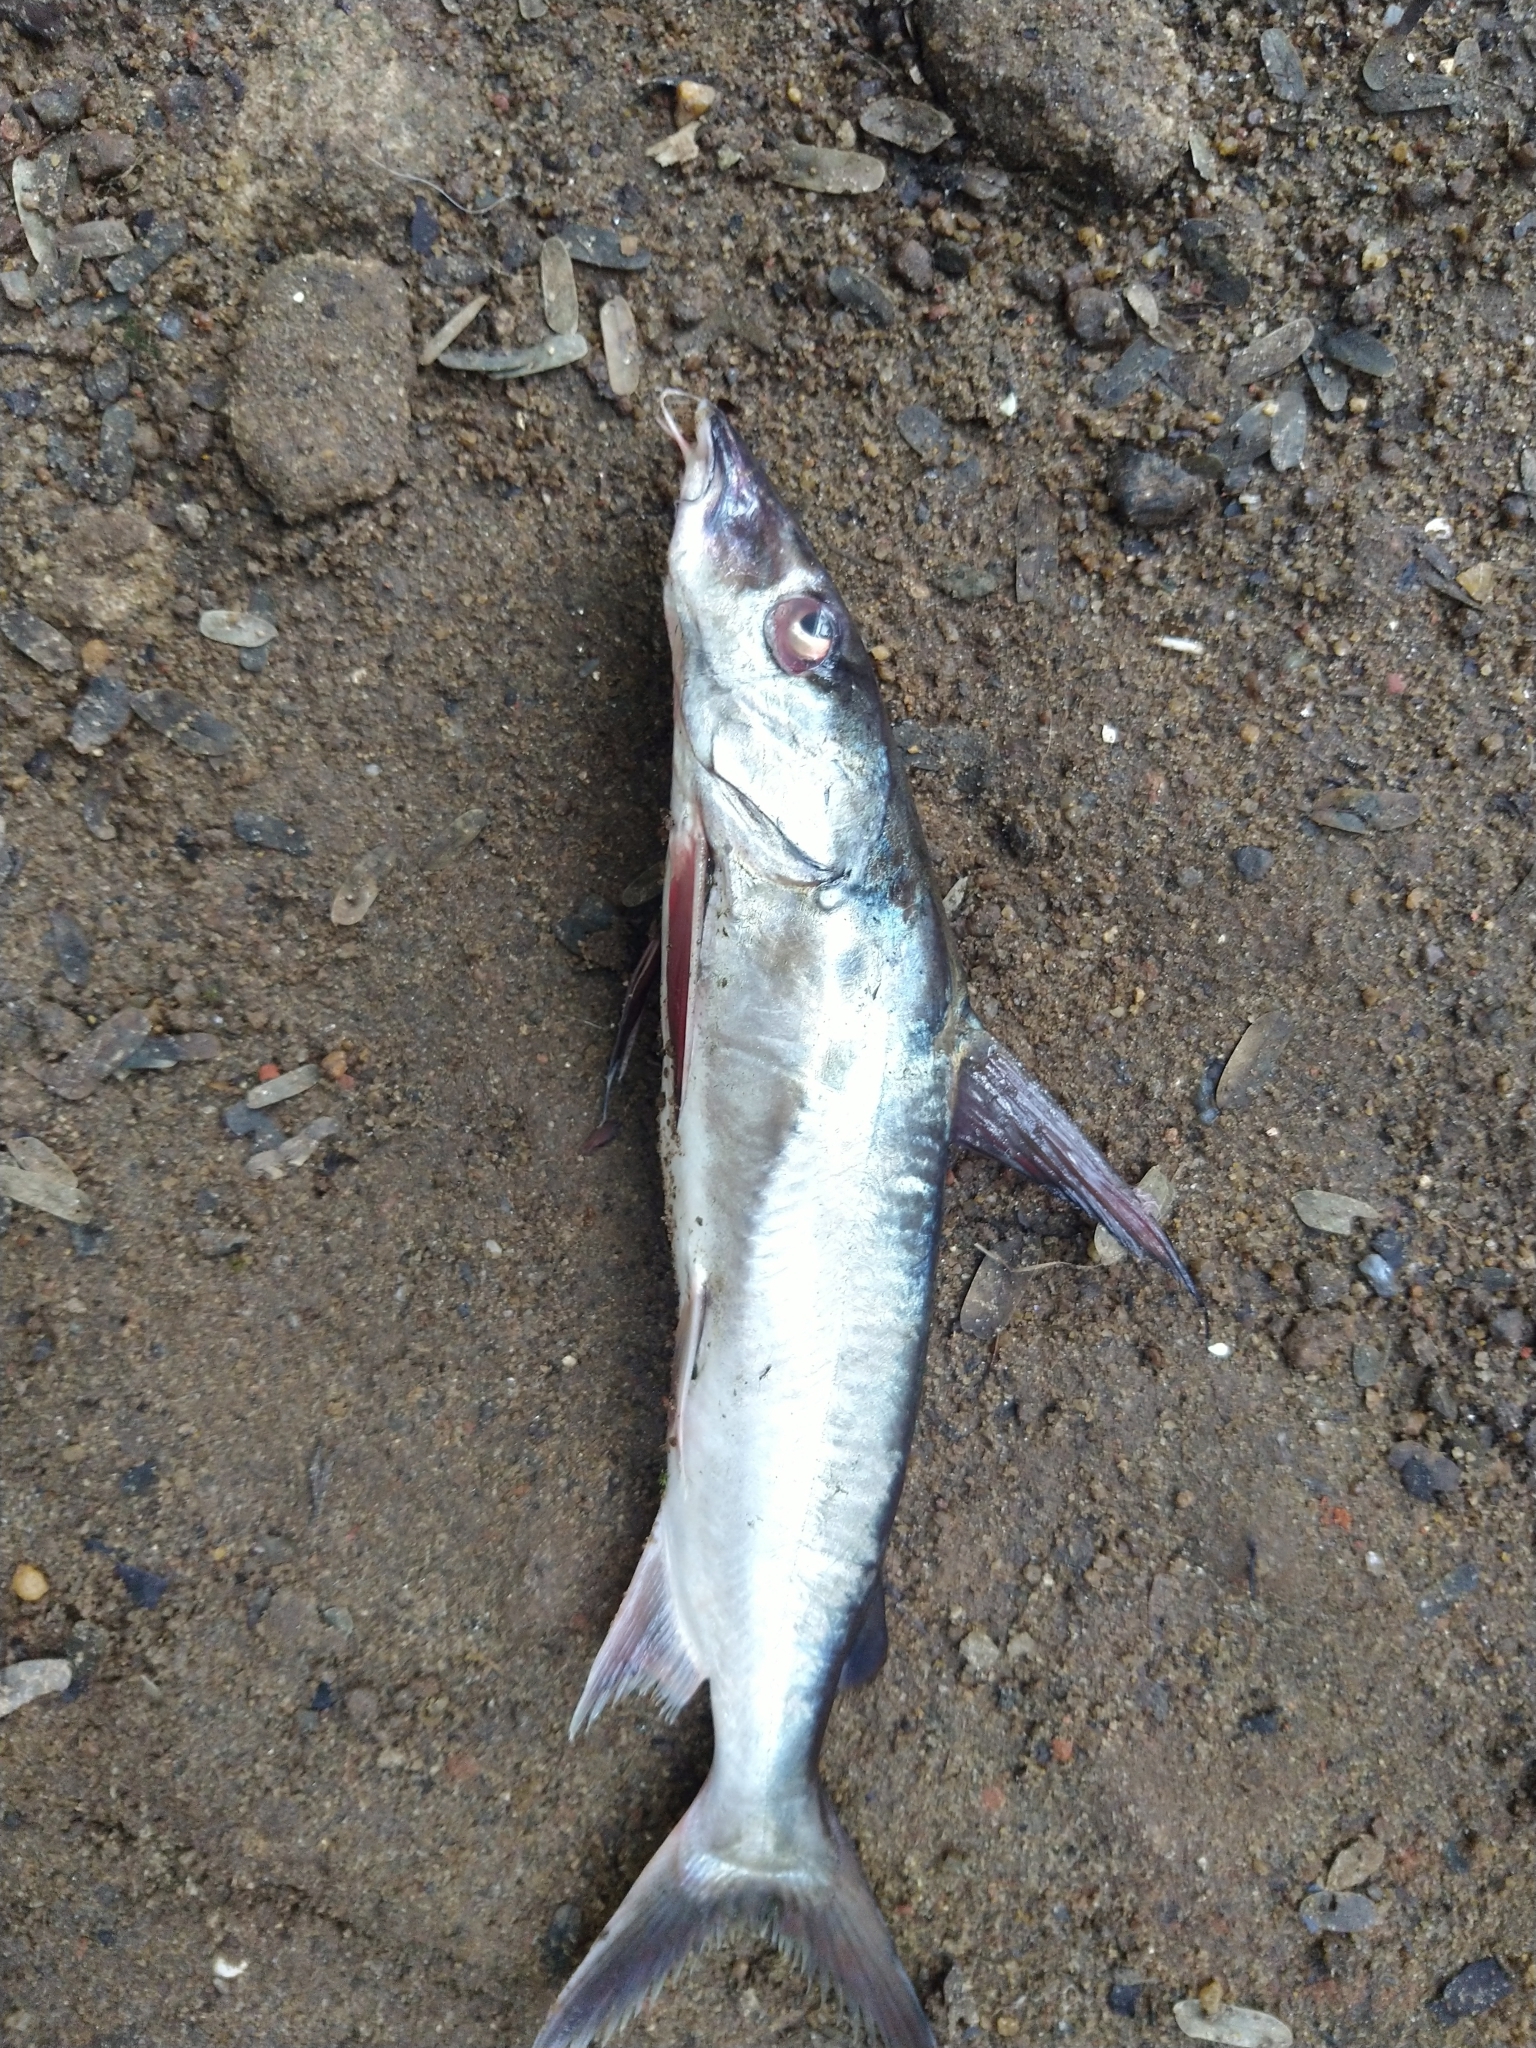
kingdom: Animalia
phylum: Chordata
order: Siluriformes
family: Ariidae
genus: Arius
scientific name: Arius subrostratus
